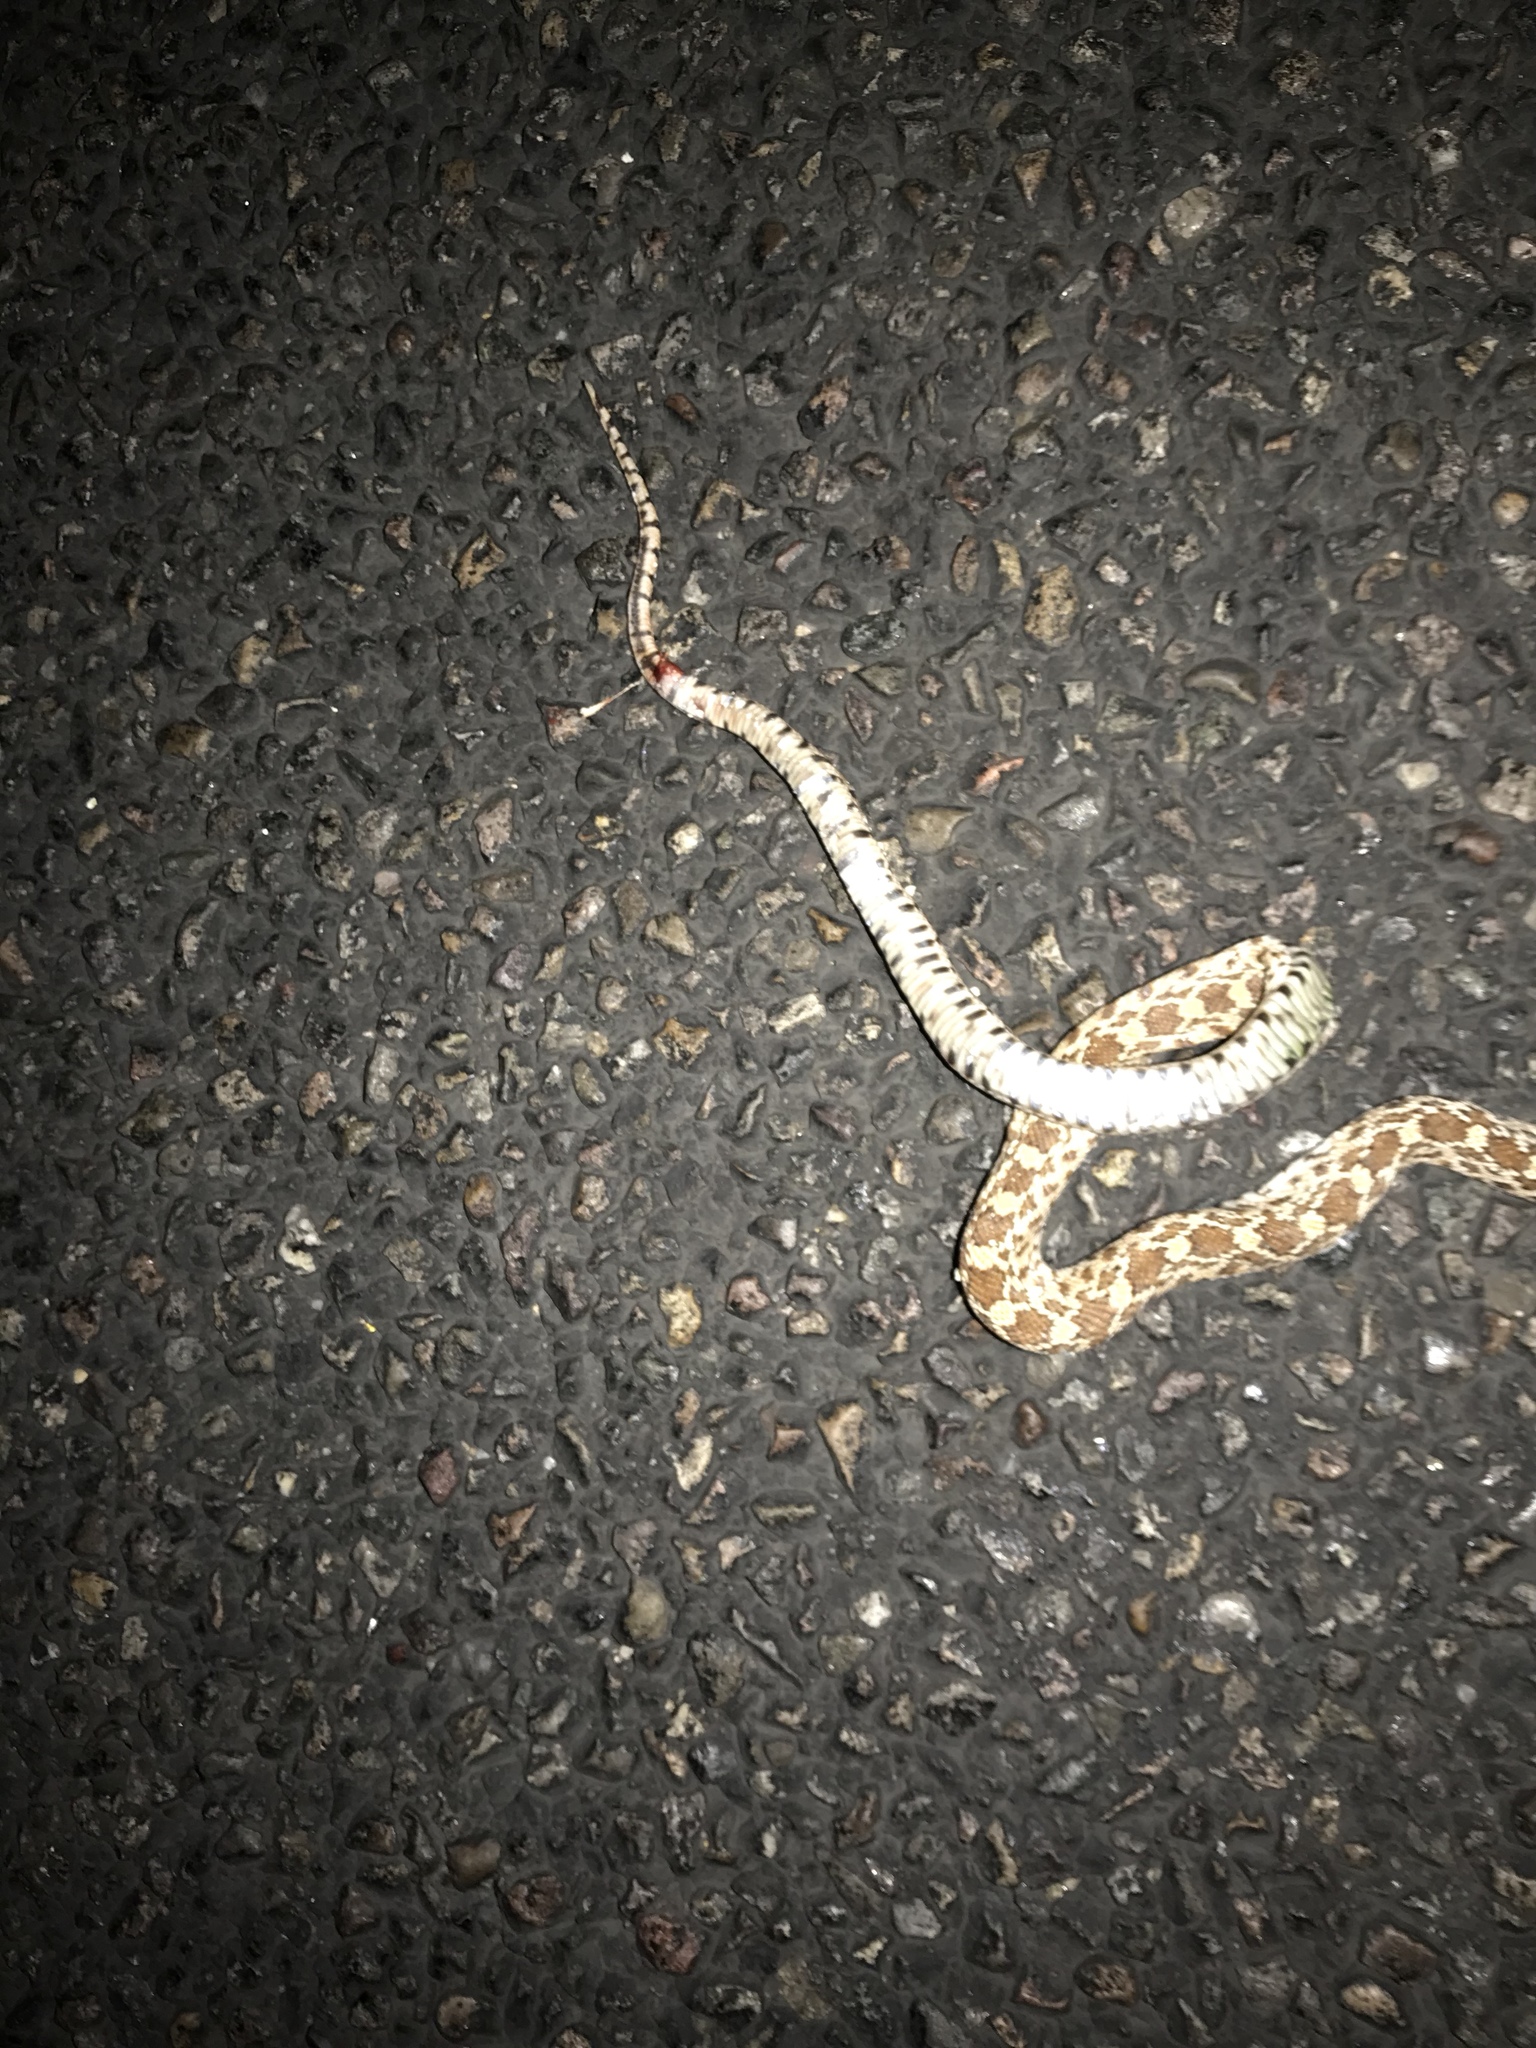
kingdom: Animalia
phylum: Chordata
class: Squamata
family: Colubridae
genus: Pituophis
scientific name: Pituophis catenifer
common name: Gopher snake
